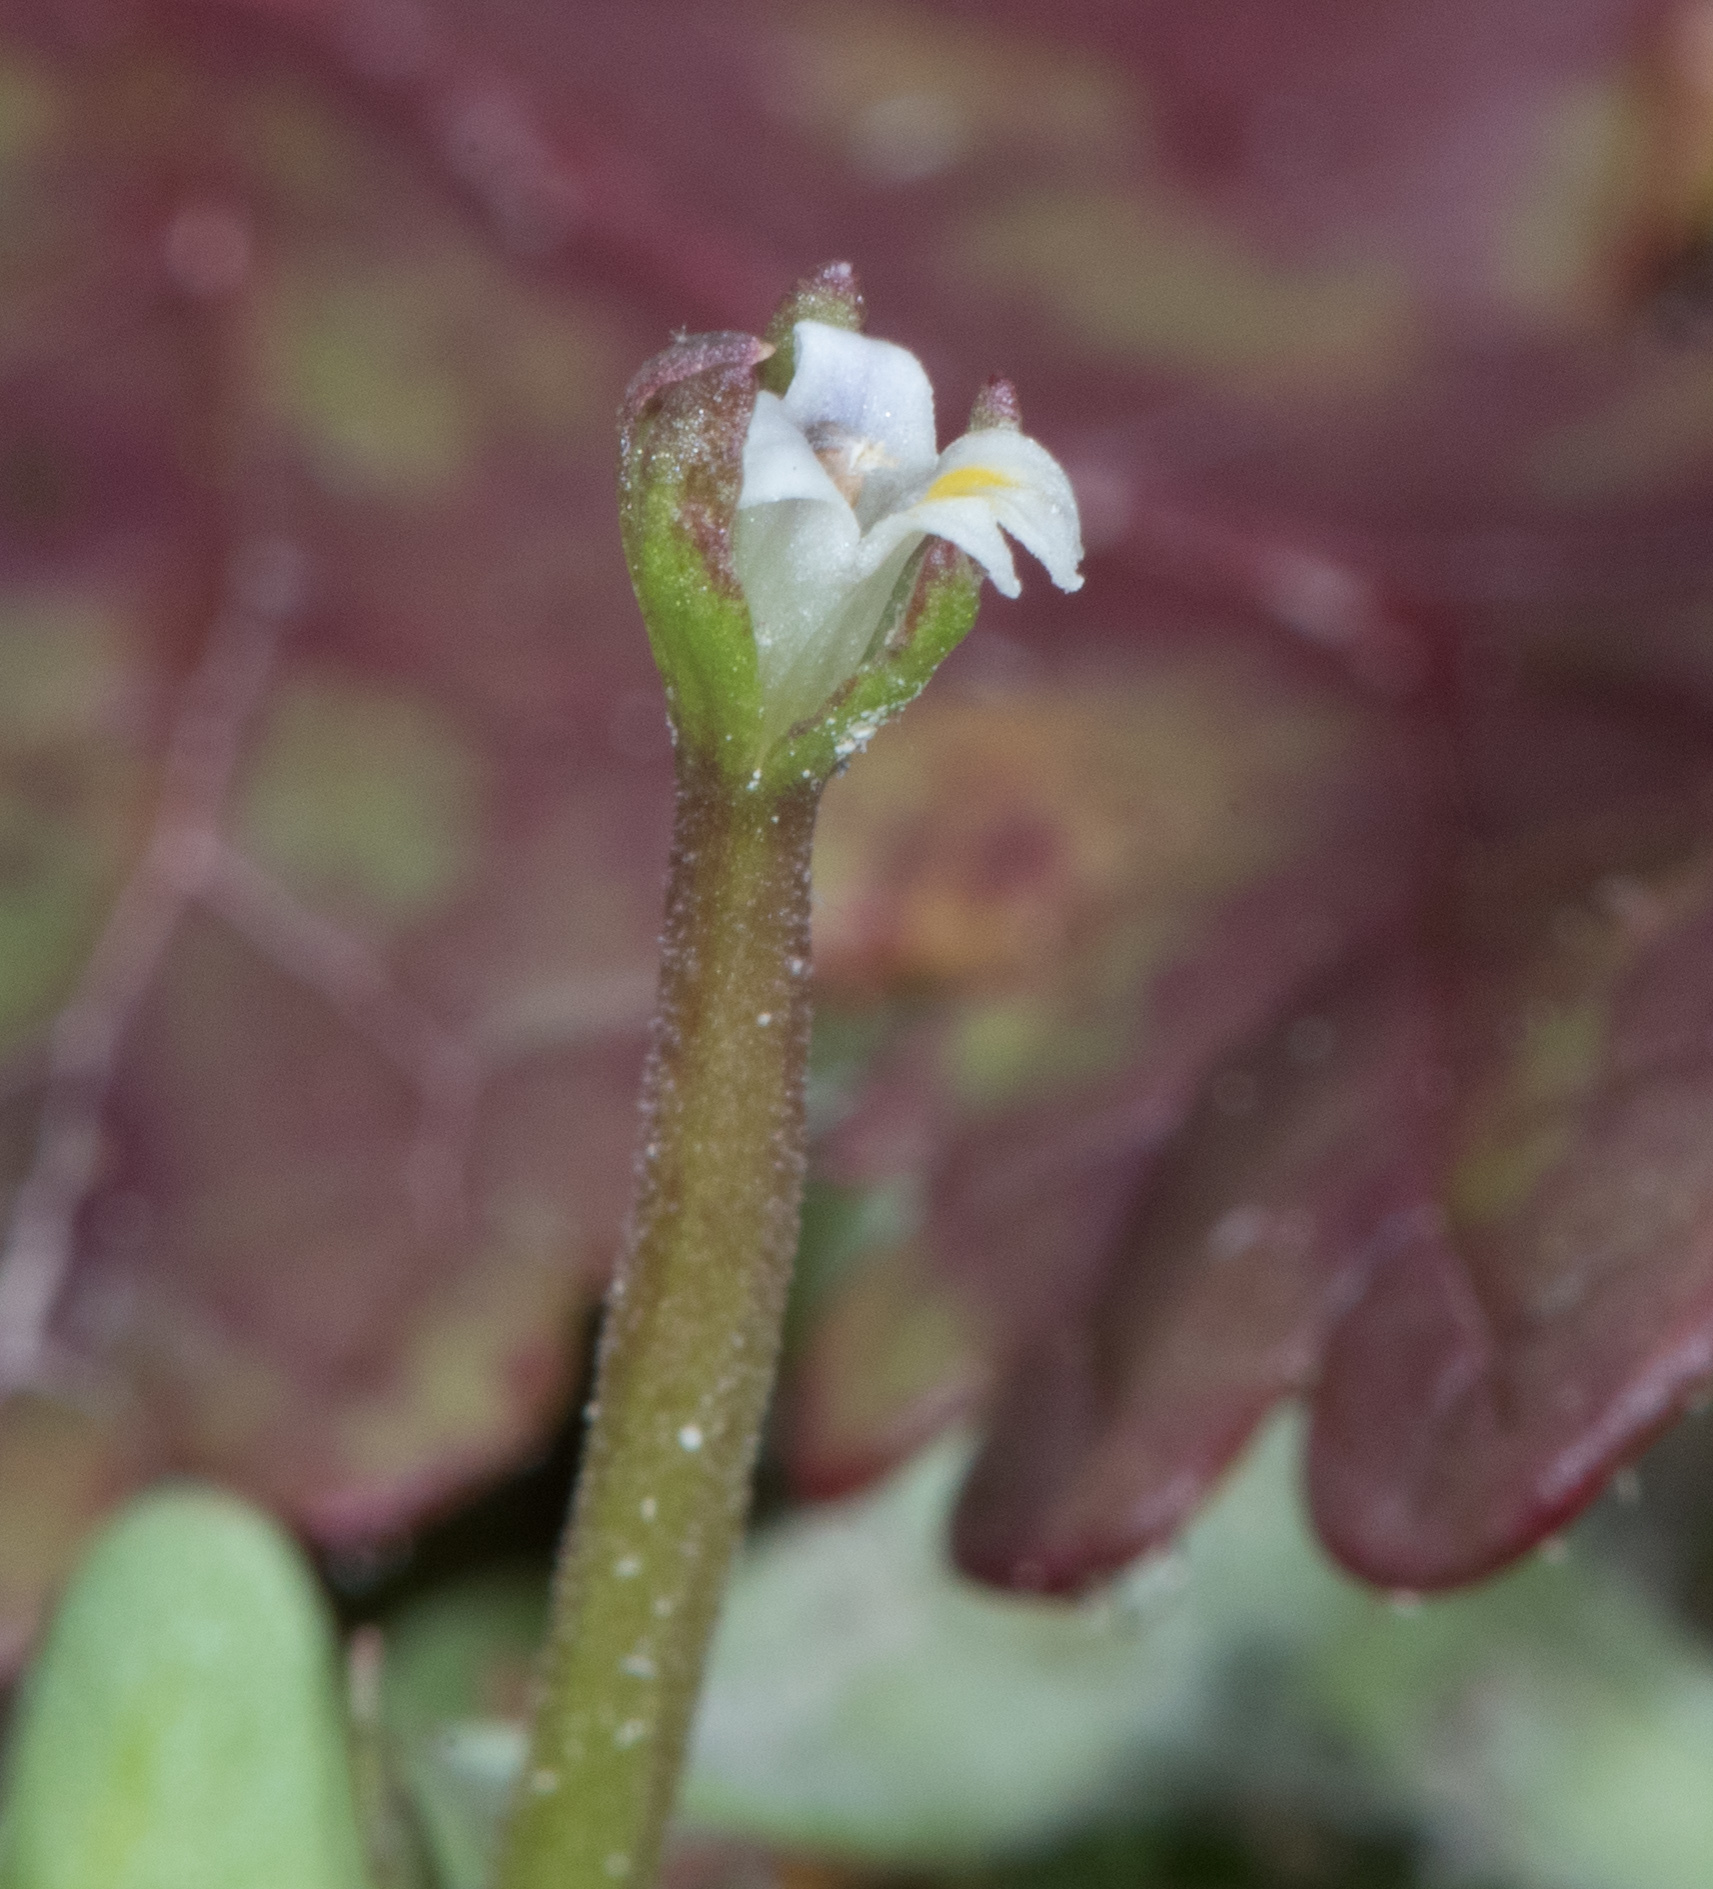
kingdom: Plantae
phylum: Tracheophyta
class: Magnoliopsida
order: Asterales
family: Campanulaceae
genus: Downingia
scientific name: Downingia pusilla
